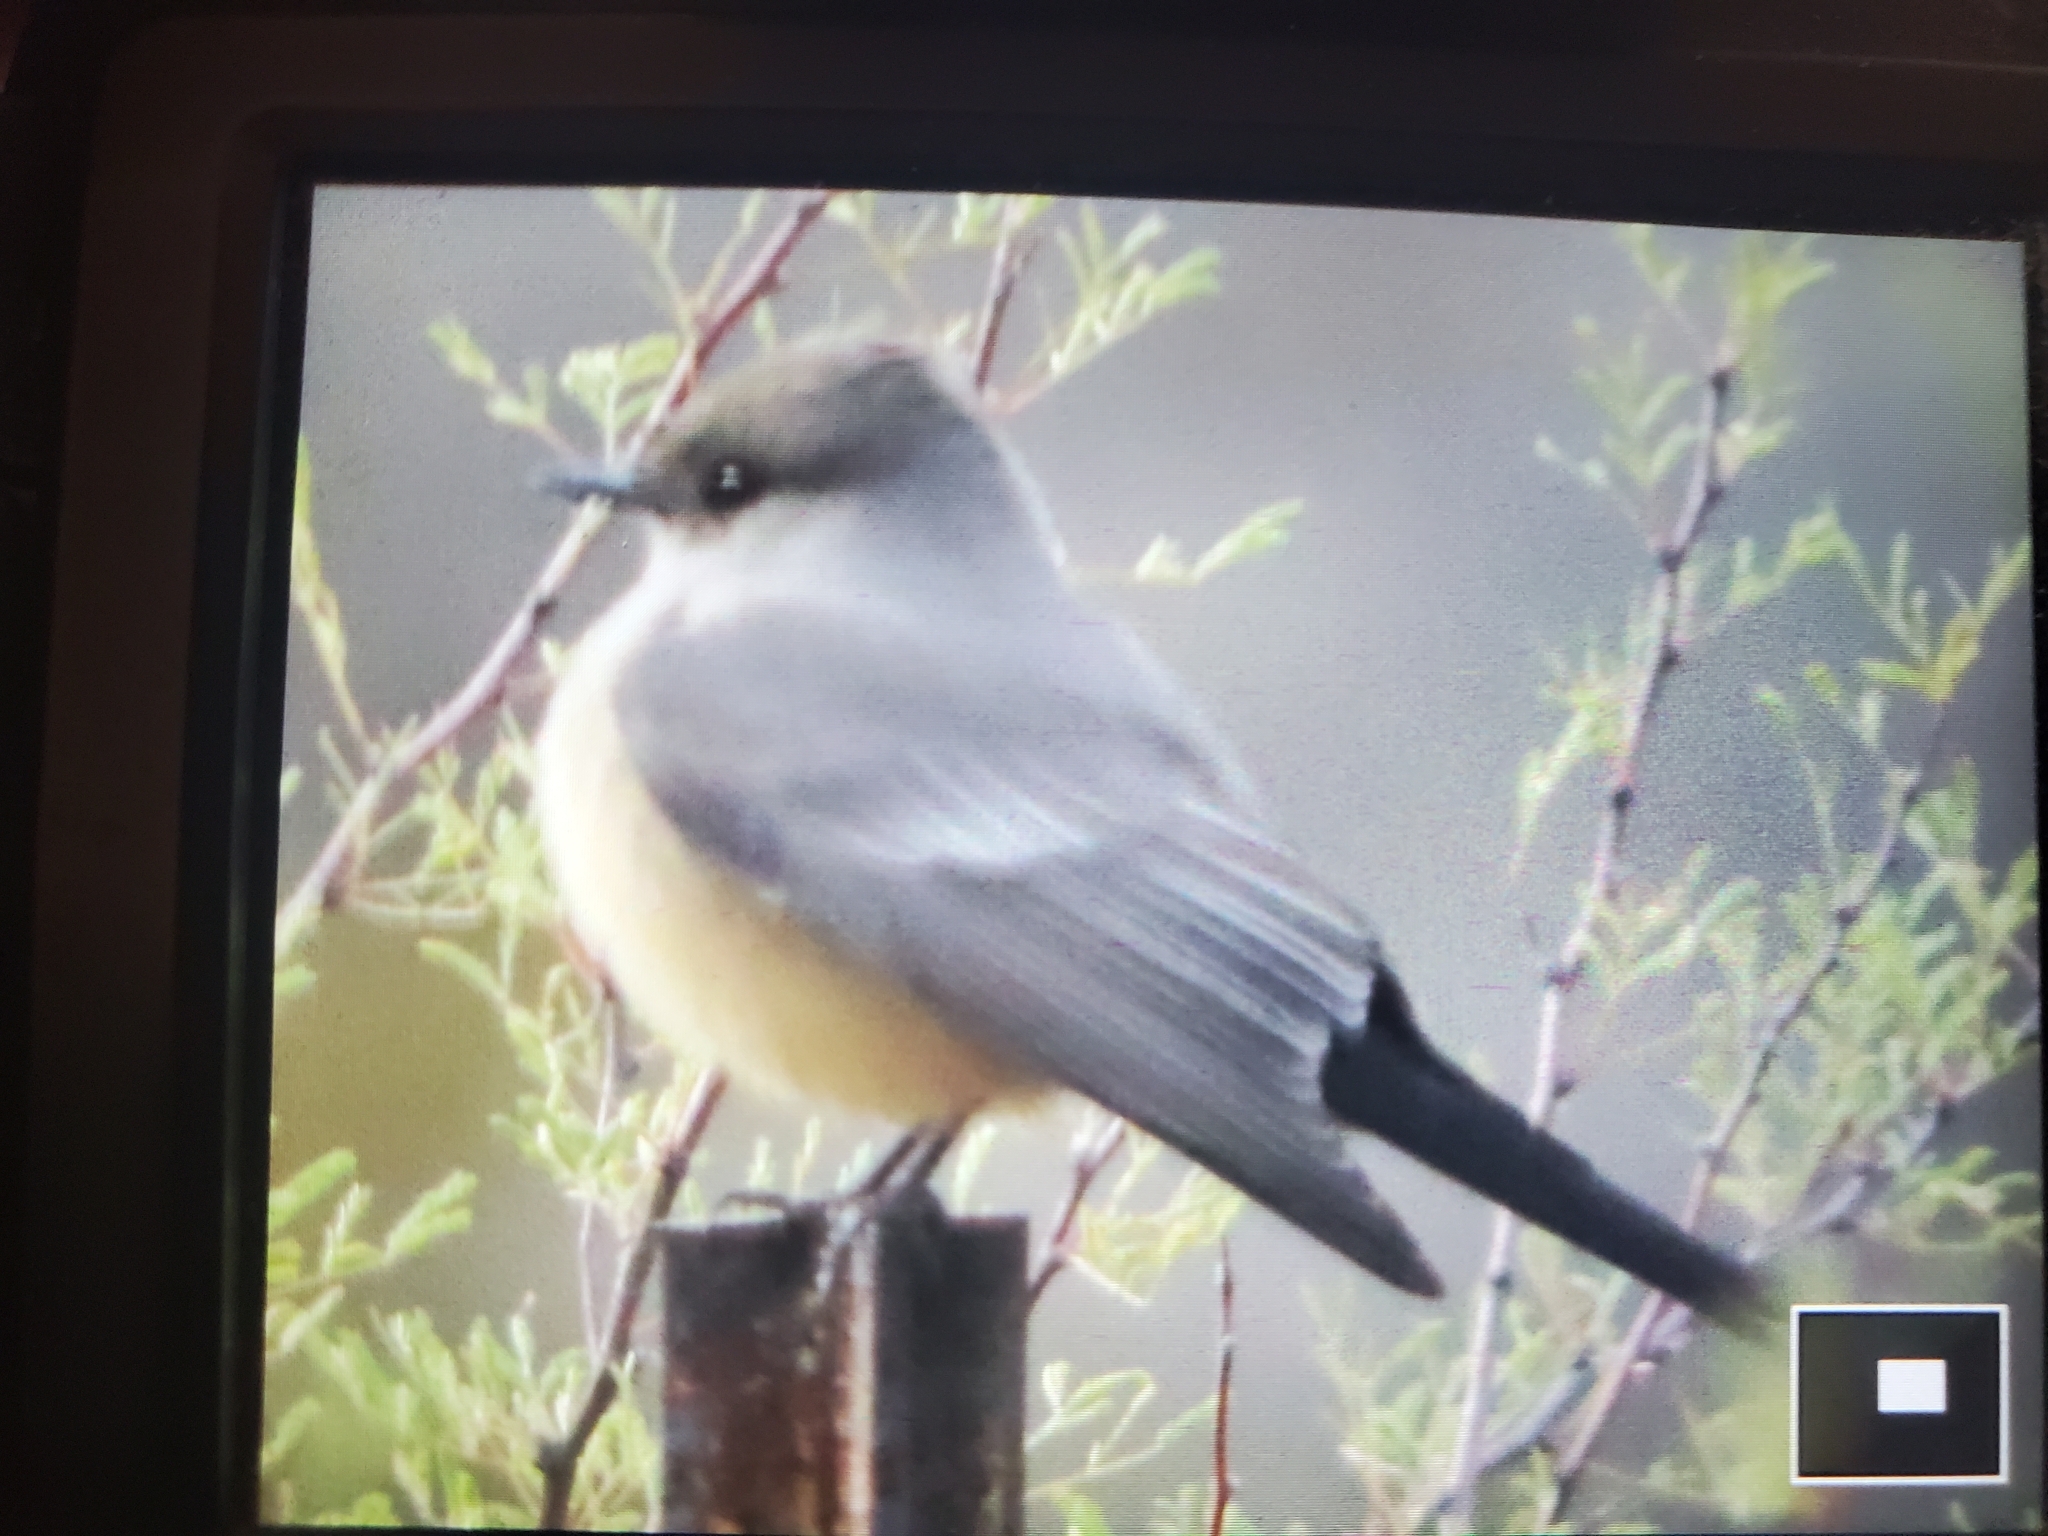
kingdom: Animalia
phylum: Chordata
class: Aves
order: Passeriformes
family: Tyrannidae
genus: Sayornis
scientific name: Sayornis saya
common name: Say's phoebe
